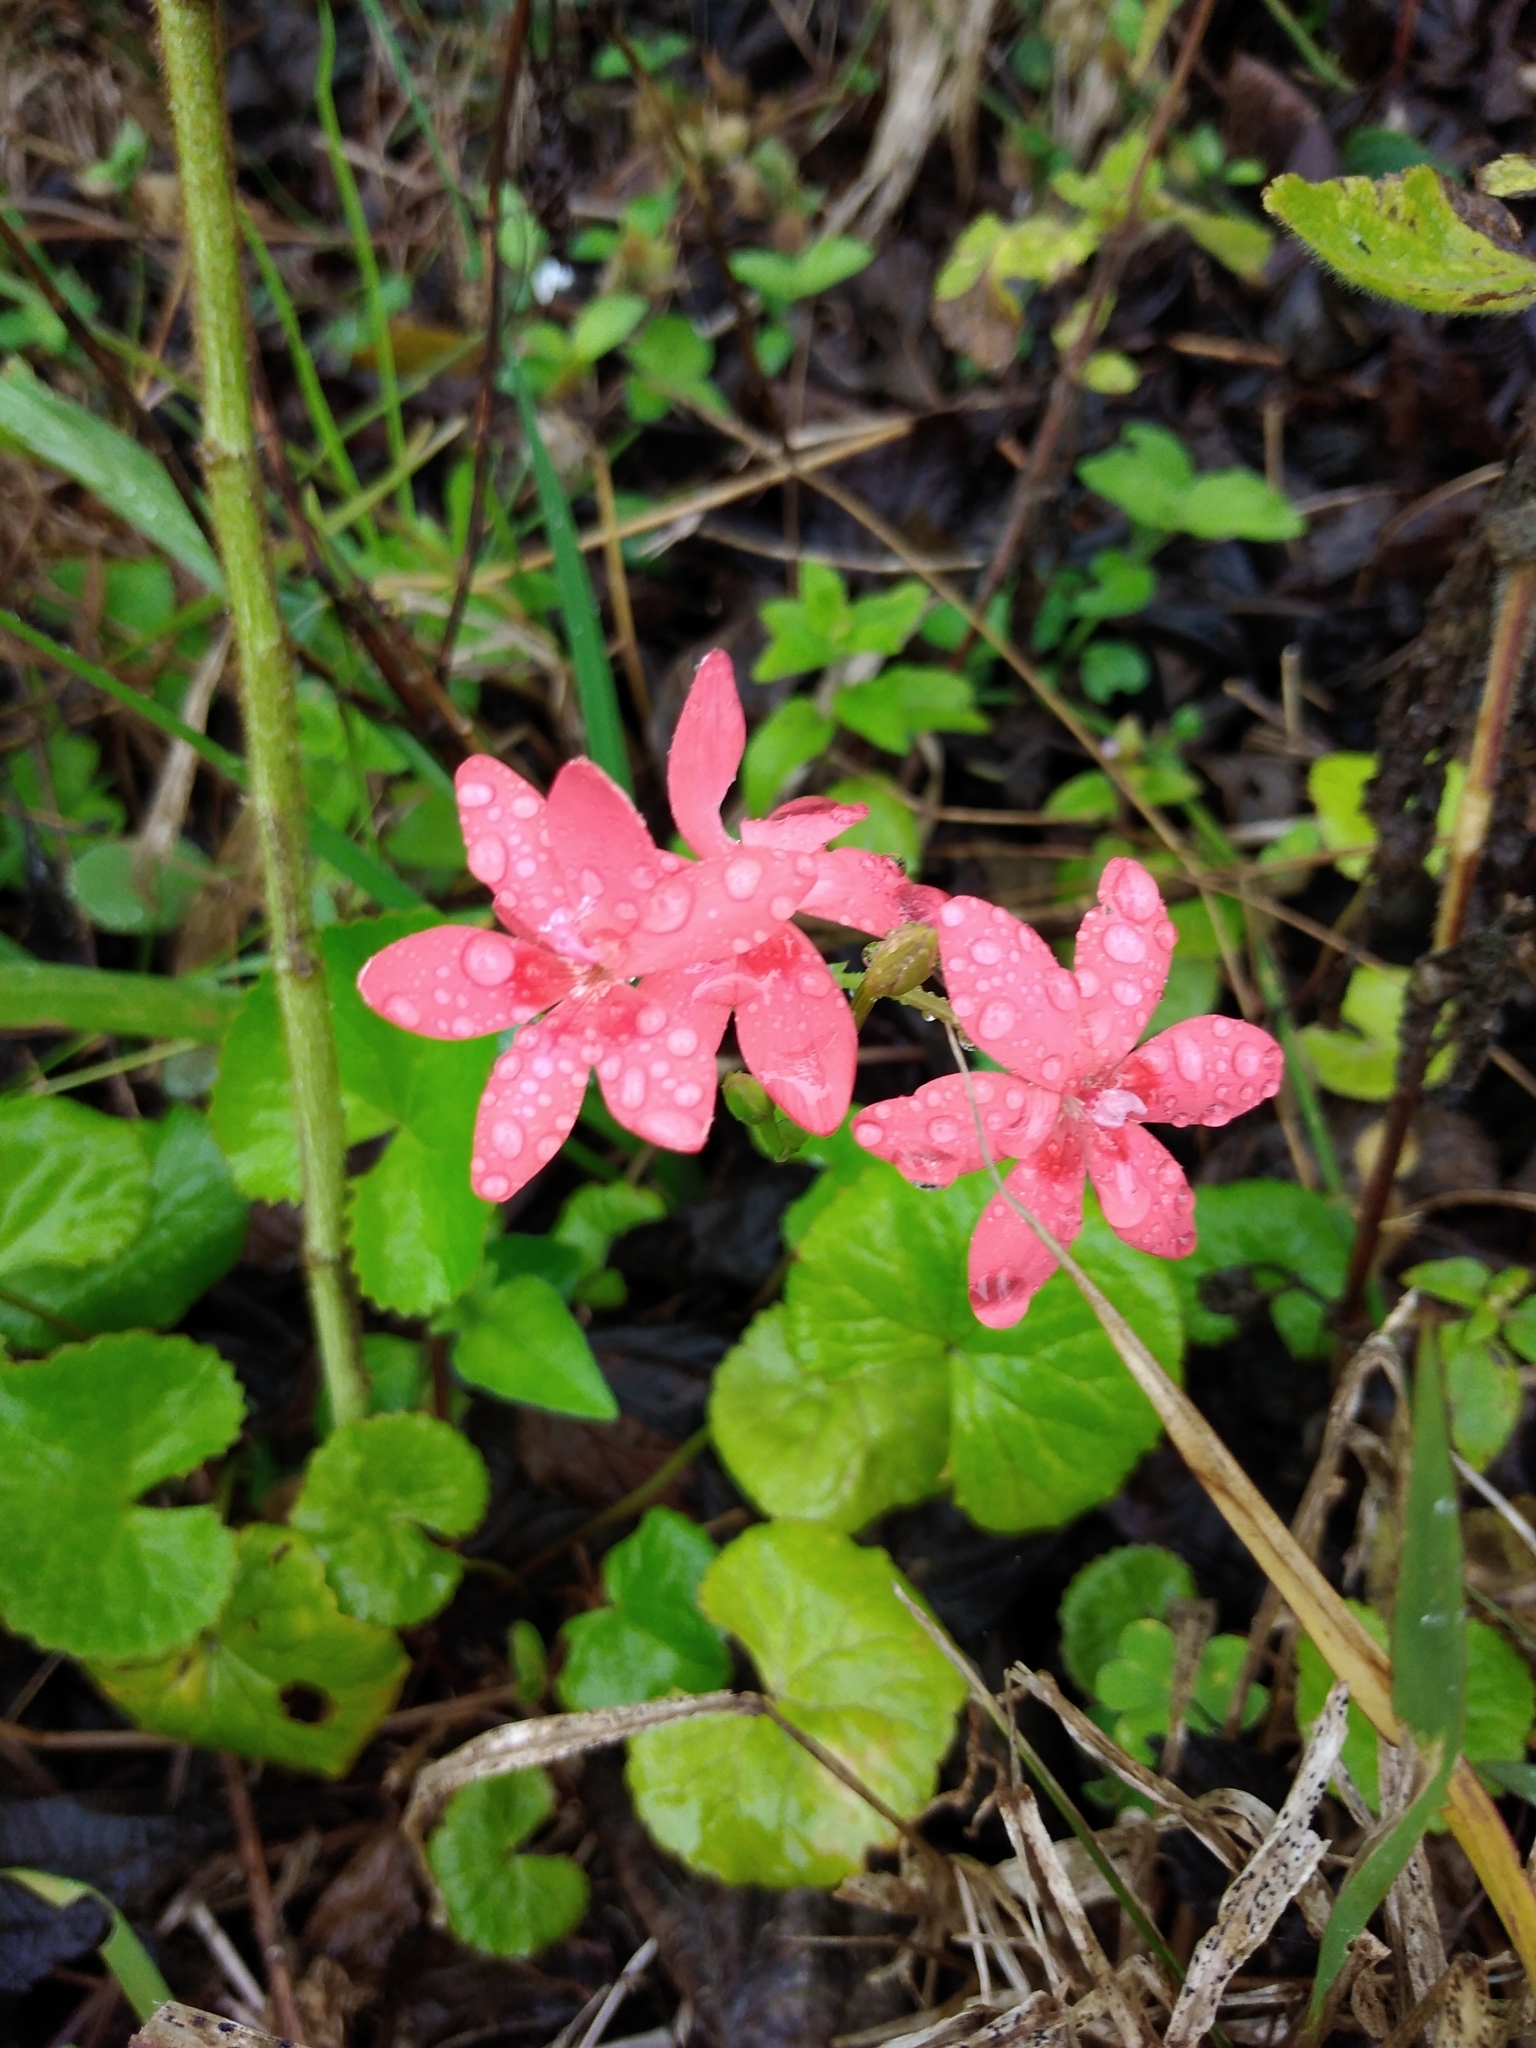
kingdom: Plantae
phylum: Tracheophyta
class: Liliopsida
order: Asparagales
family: Iridaceae
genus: Freesia
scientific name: Freesia laxa
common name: False freesia
